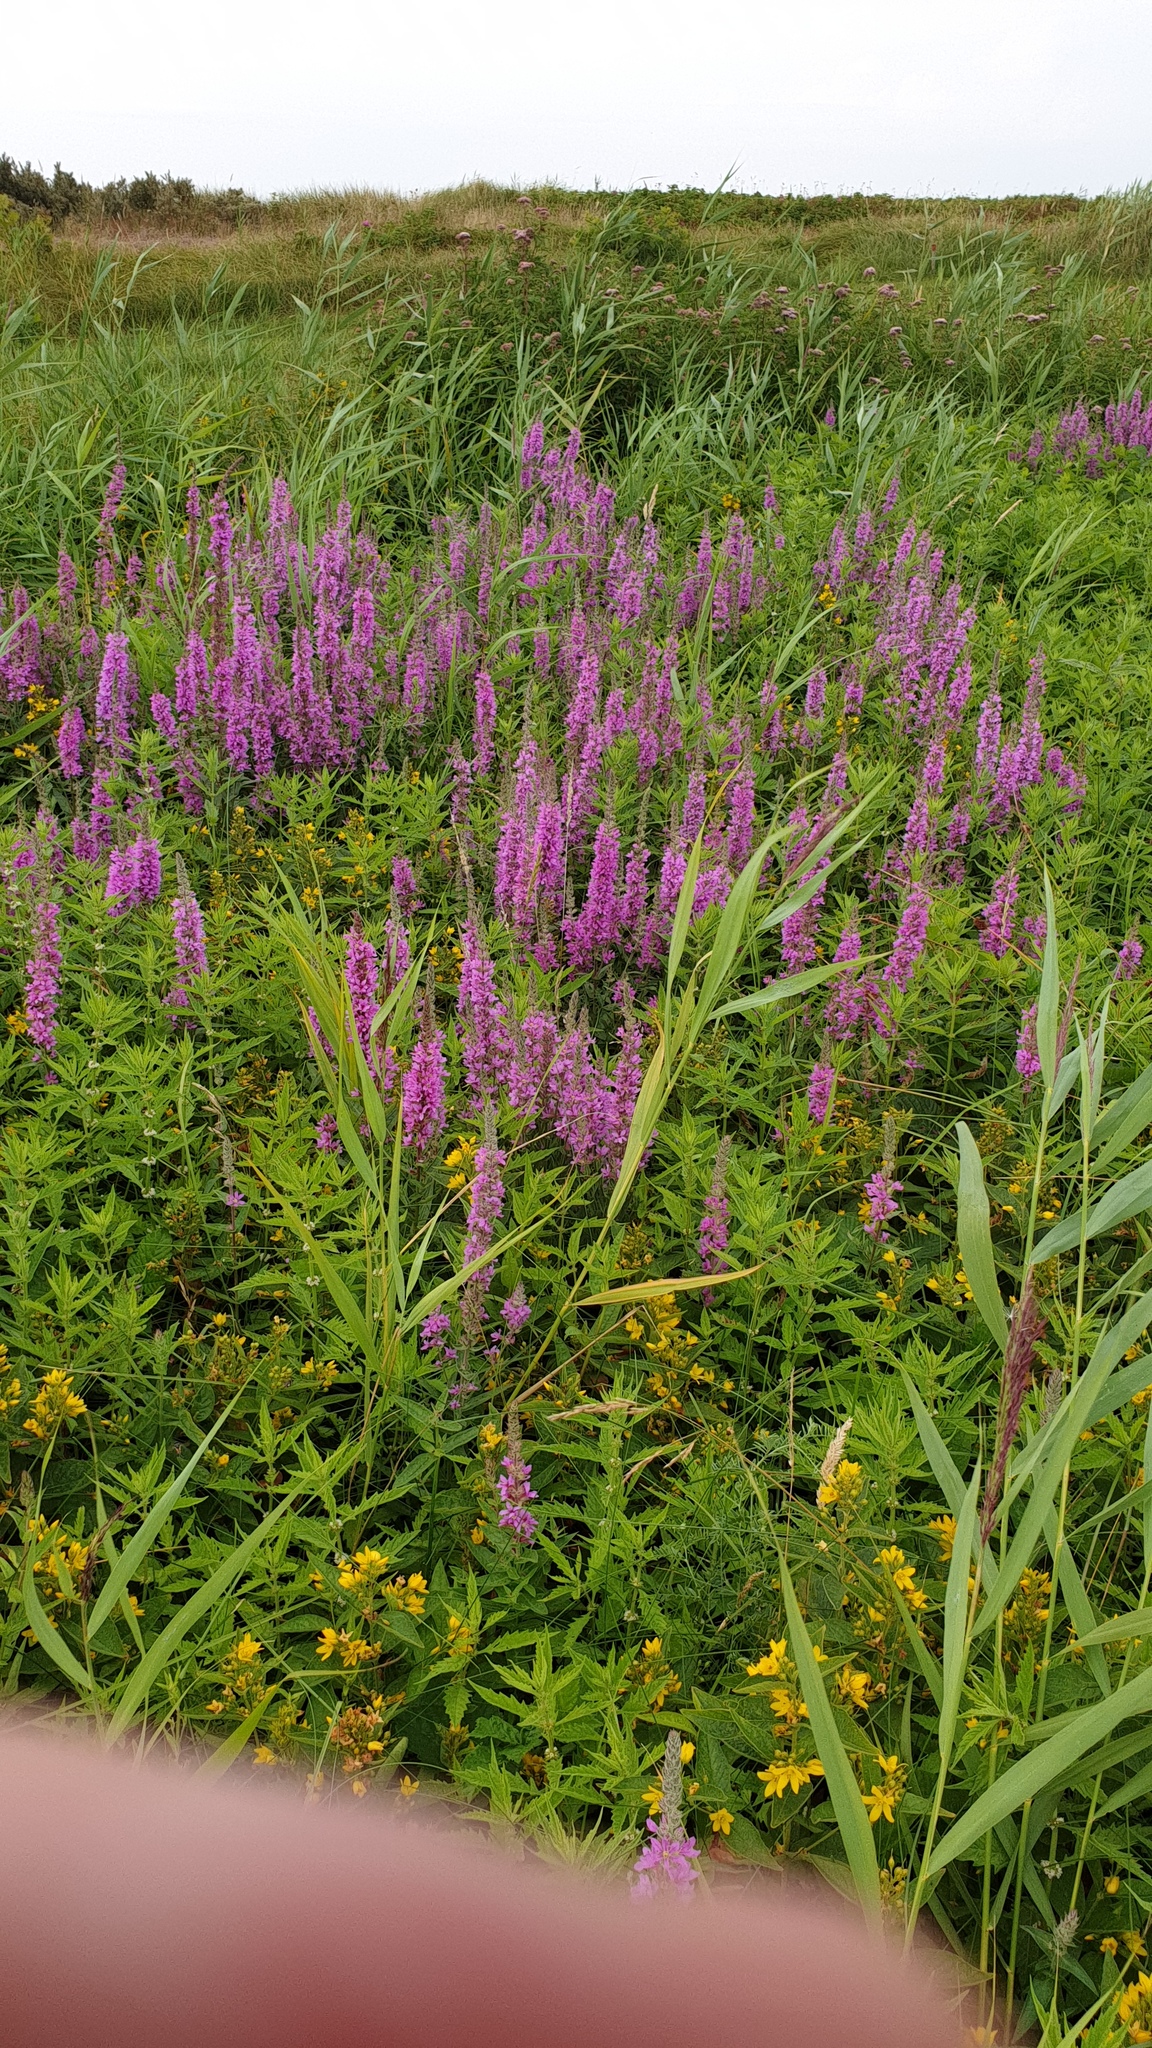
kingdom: Plantae
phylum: Tracheophyta
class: Magnoliopsida
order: Myrtales
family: Lythraceae
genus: Lythrum
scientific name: Lythrum salicaria
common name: Purple loosestrife
